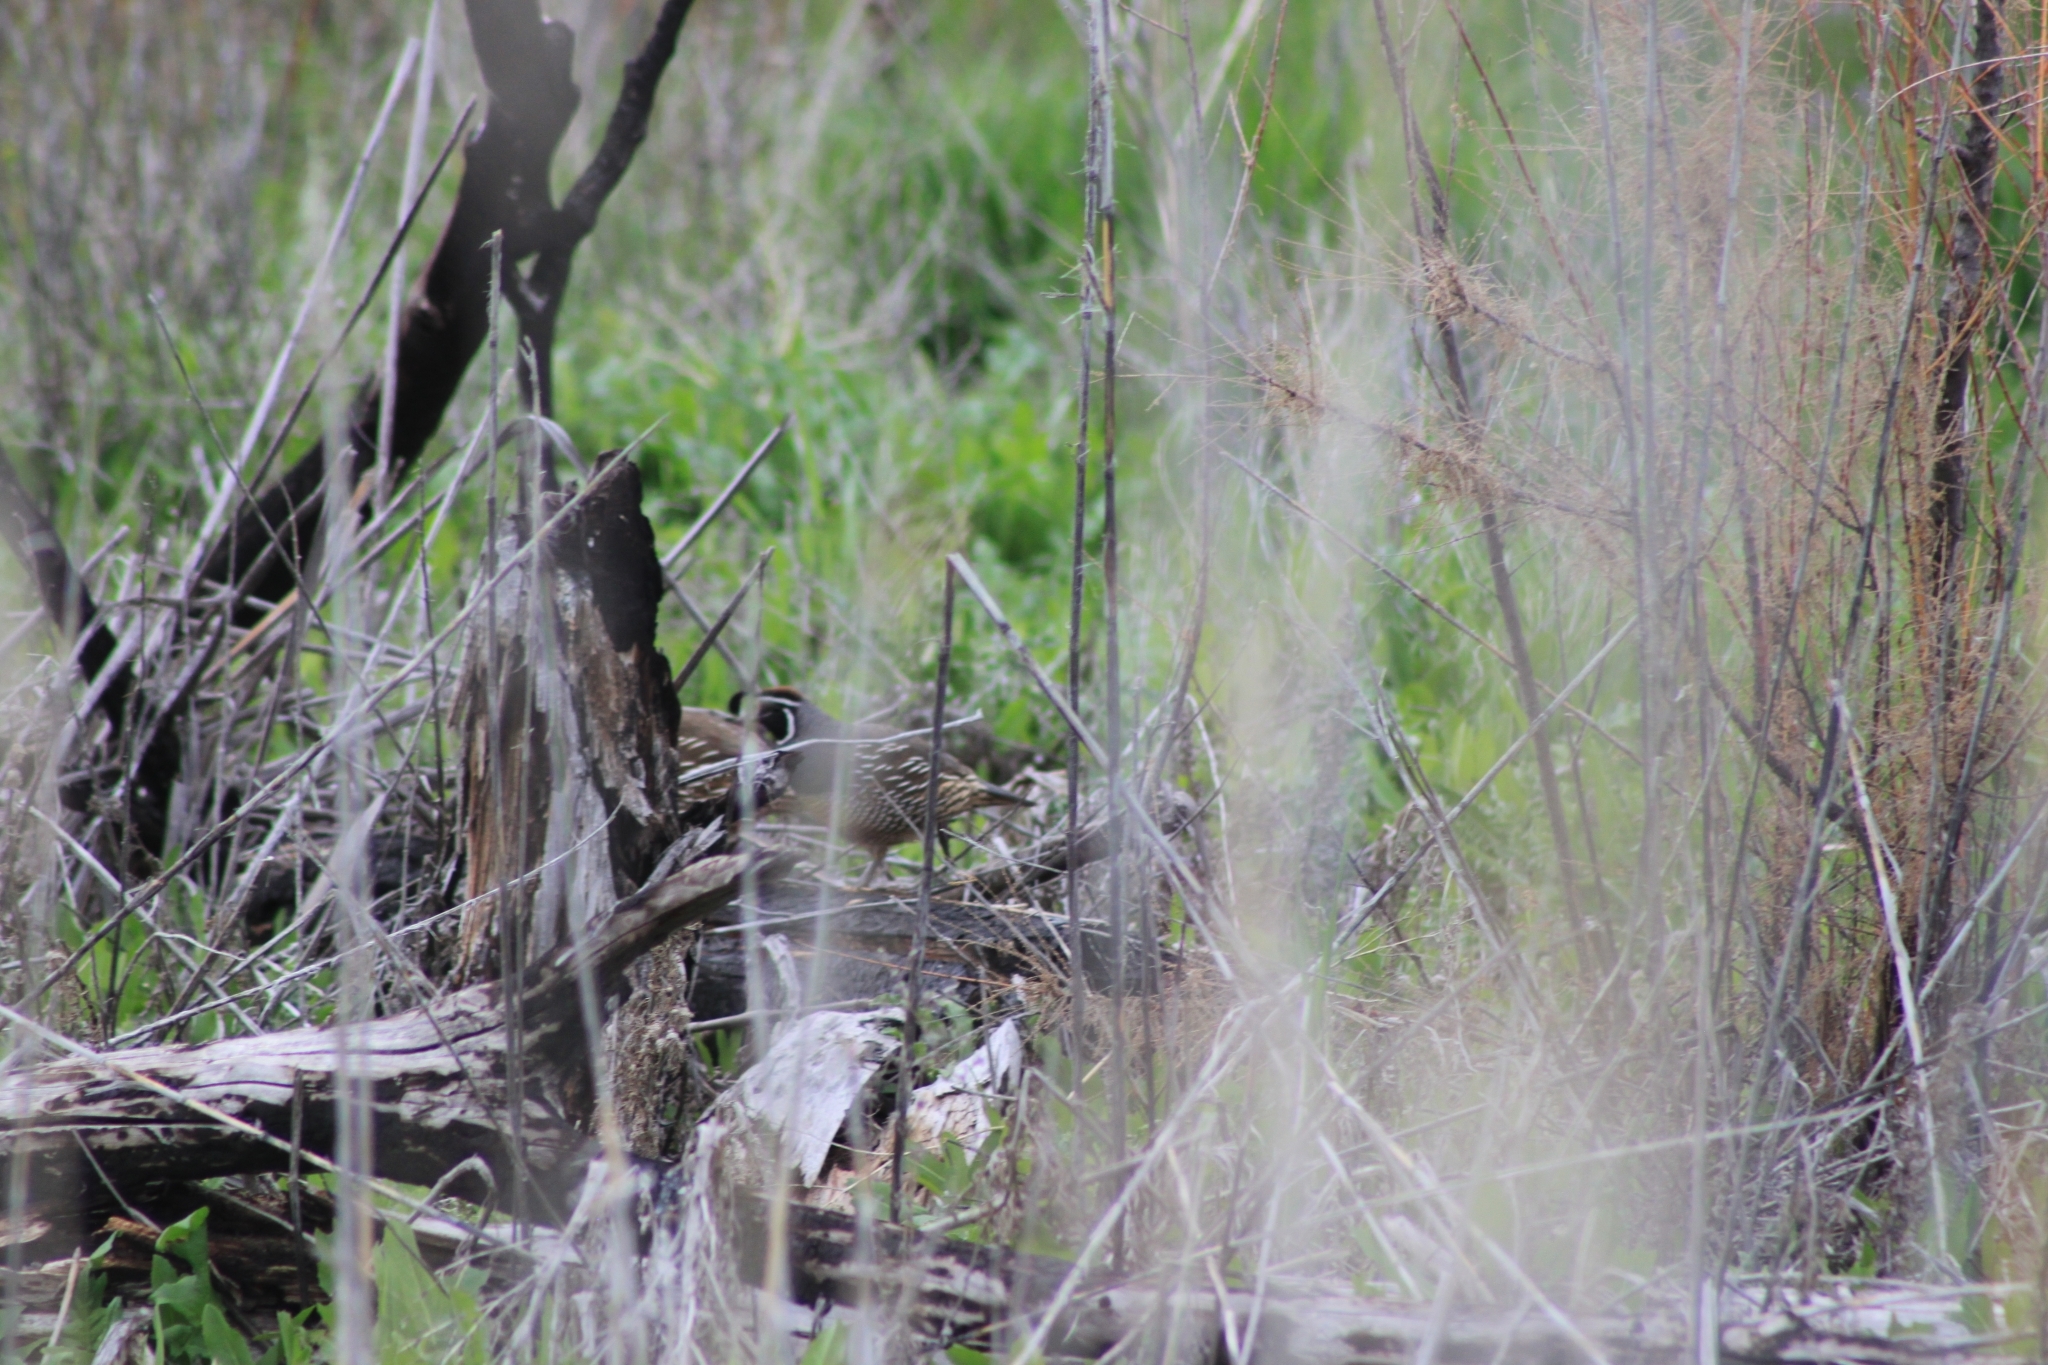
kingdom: Animalia
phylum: Chordata
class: Aves
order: Galliformes
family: Odontophoridae
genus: Callipepla
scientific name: Callipepla californica
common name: California quail
